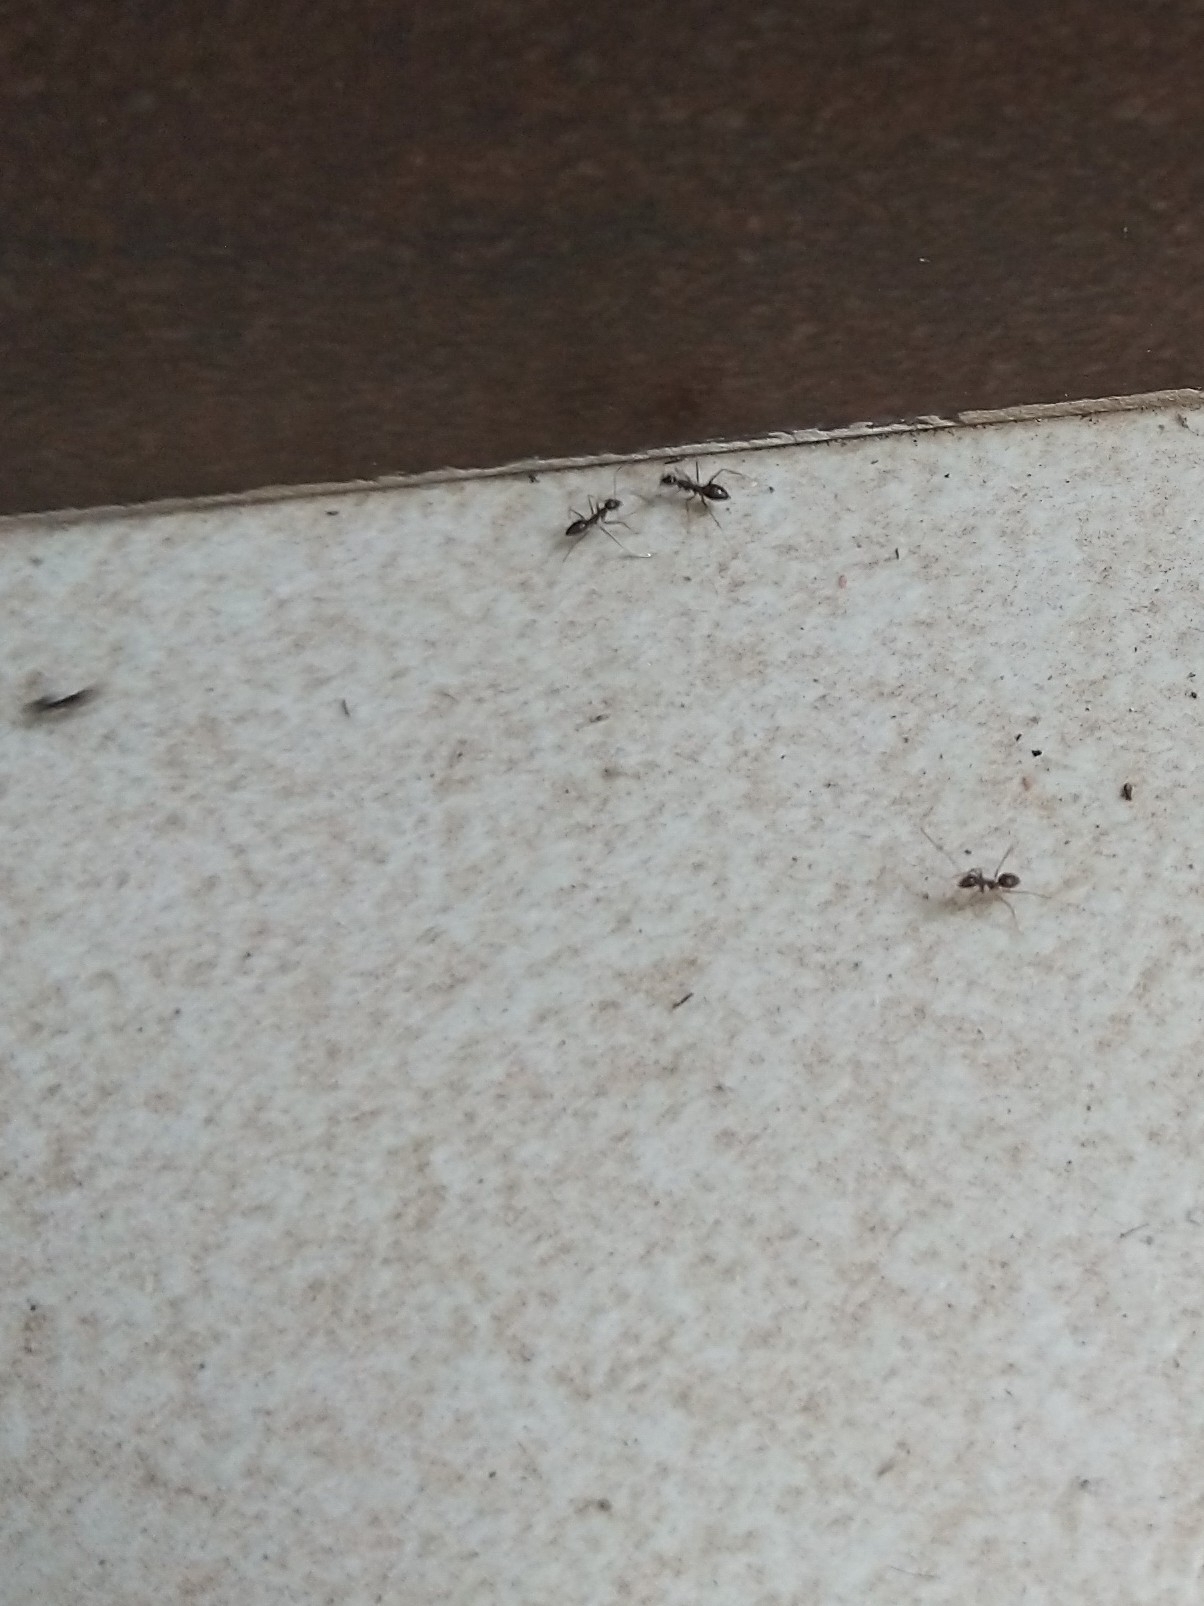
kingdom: Animalia
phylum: Arthropoda
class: Insecta
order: Hymenoptera
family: Formicidae
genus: Paratrechina
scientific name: Paratrechina longicornis
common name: Longhorned crazy ant
